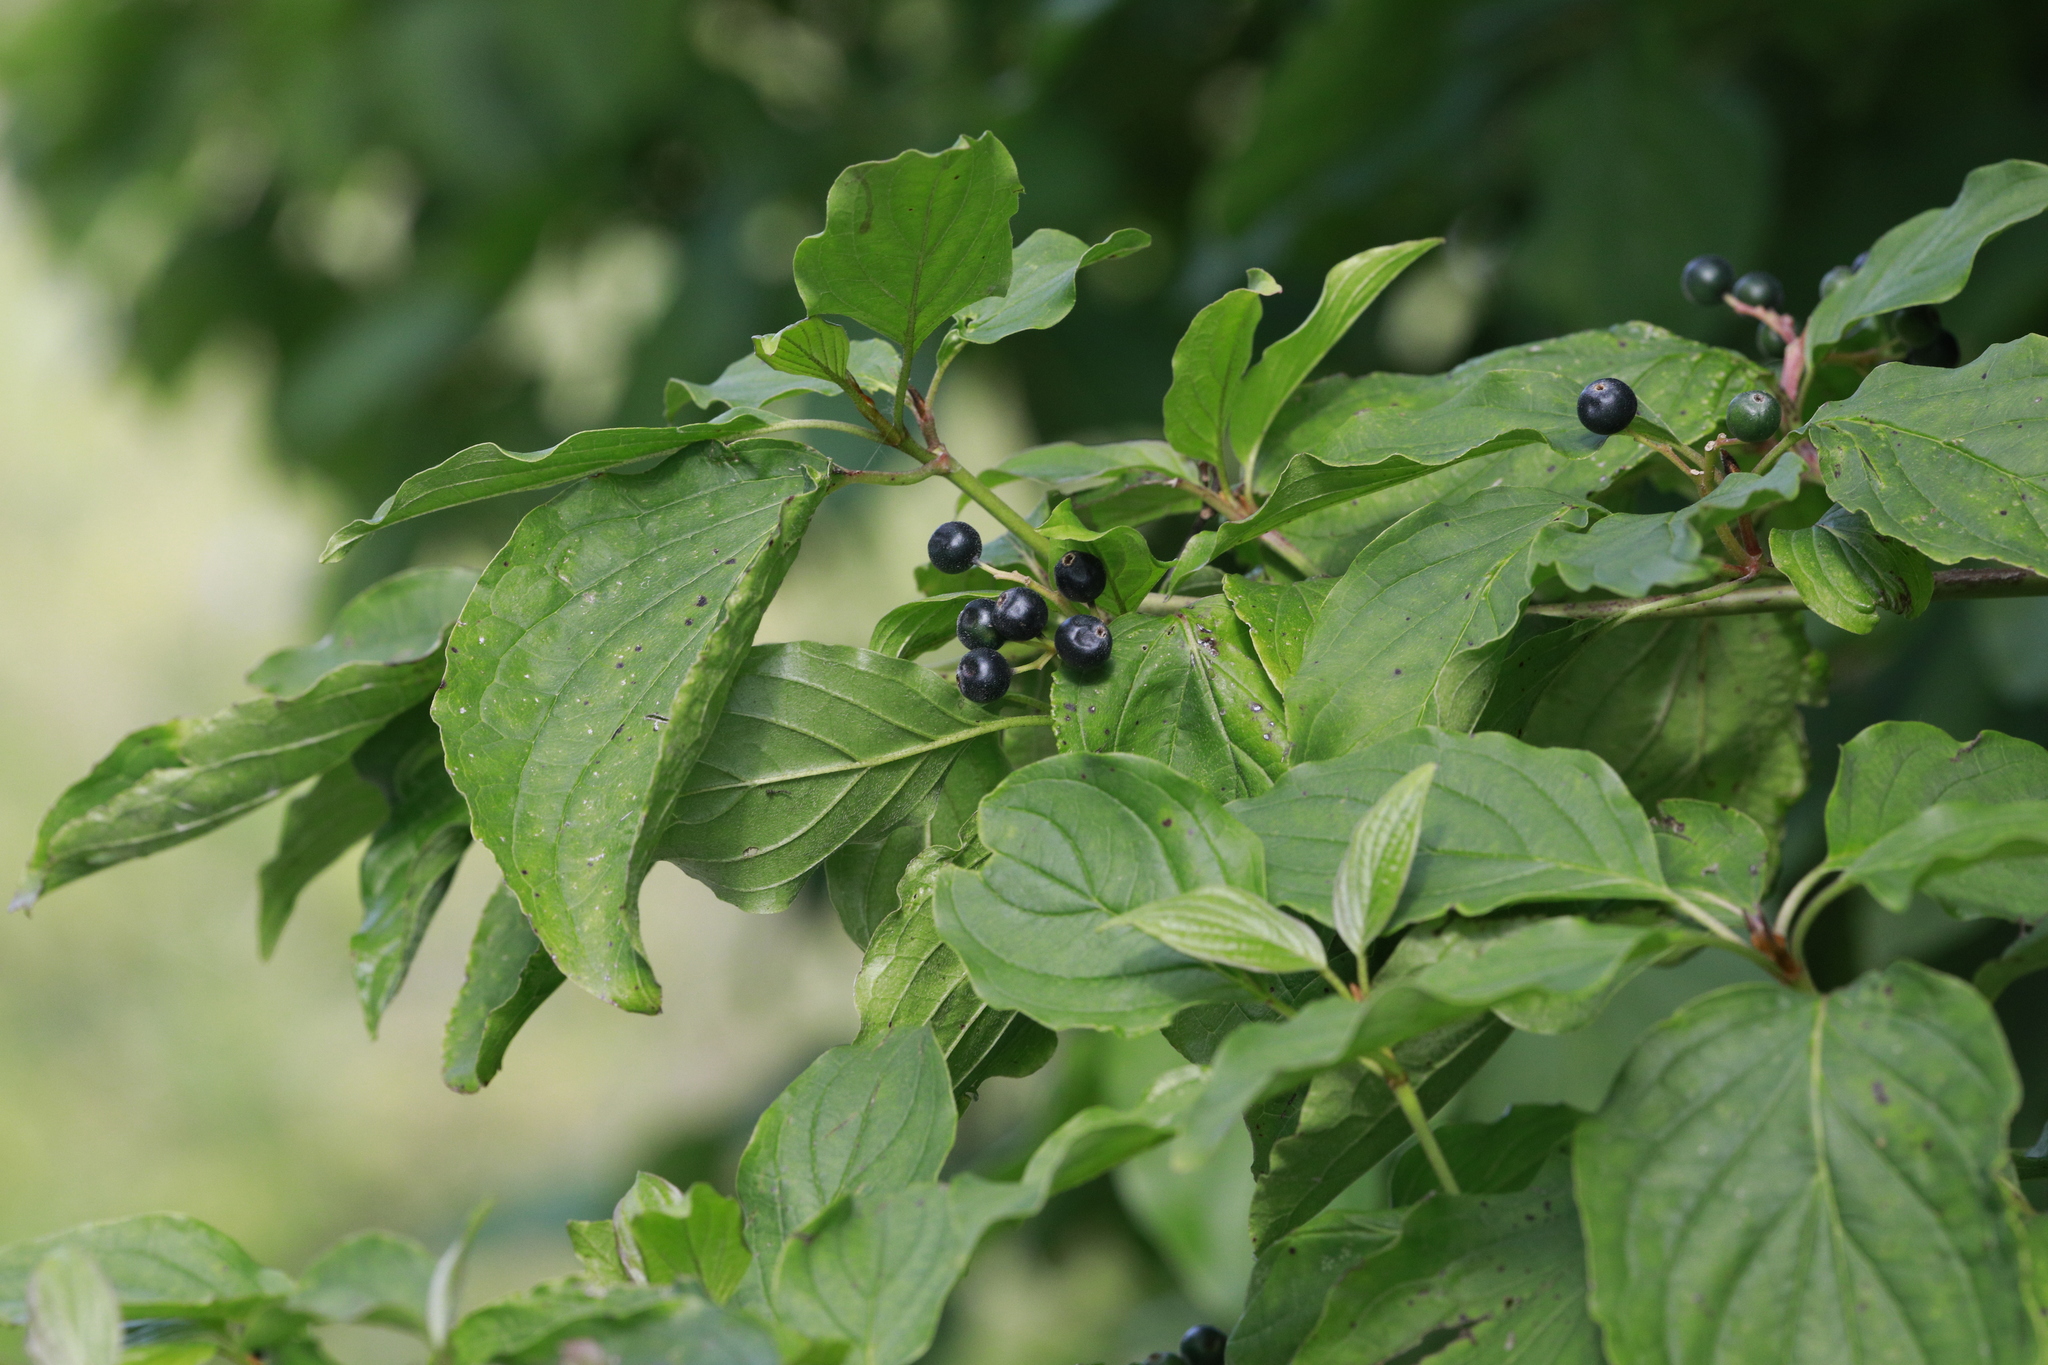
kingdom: Plantae
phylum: Tracheophyta
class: Magnoliopsida
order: Cornales
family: Cornaceae
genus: Cornus
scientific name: Cornus sanguinea
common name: Dogwood
